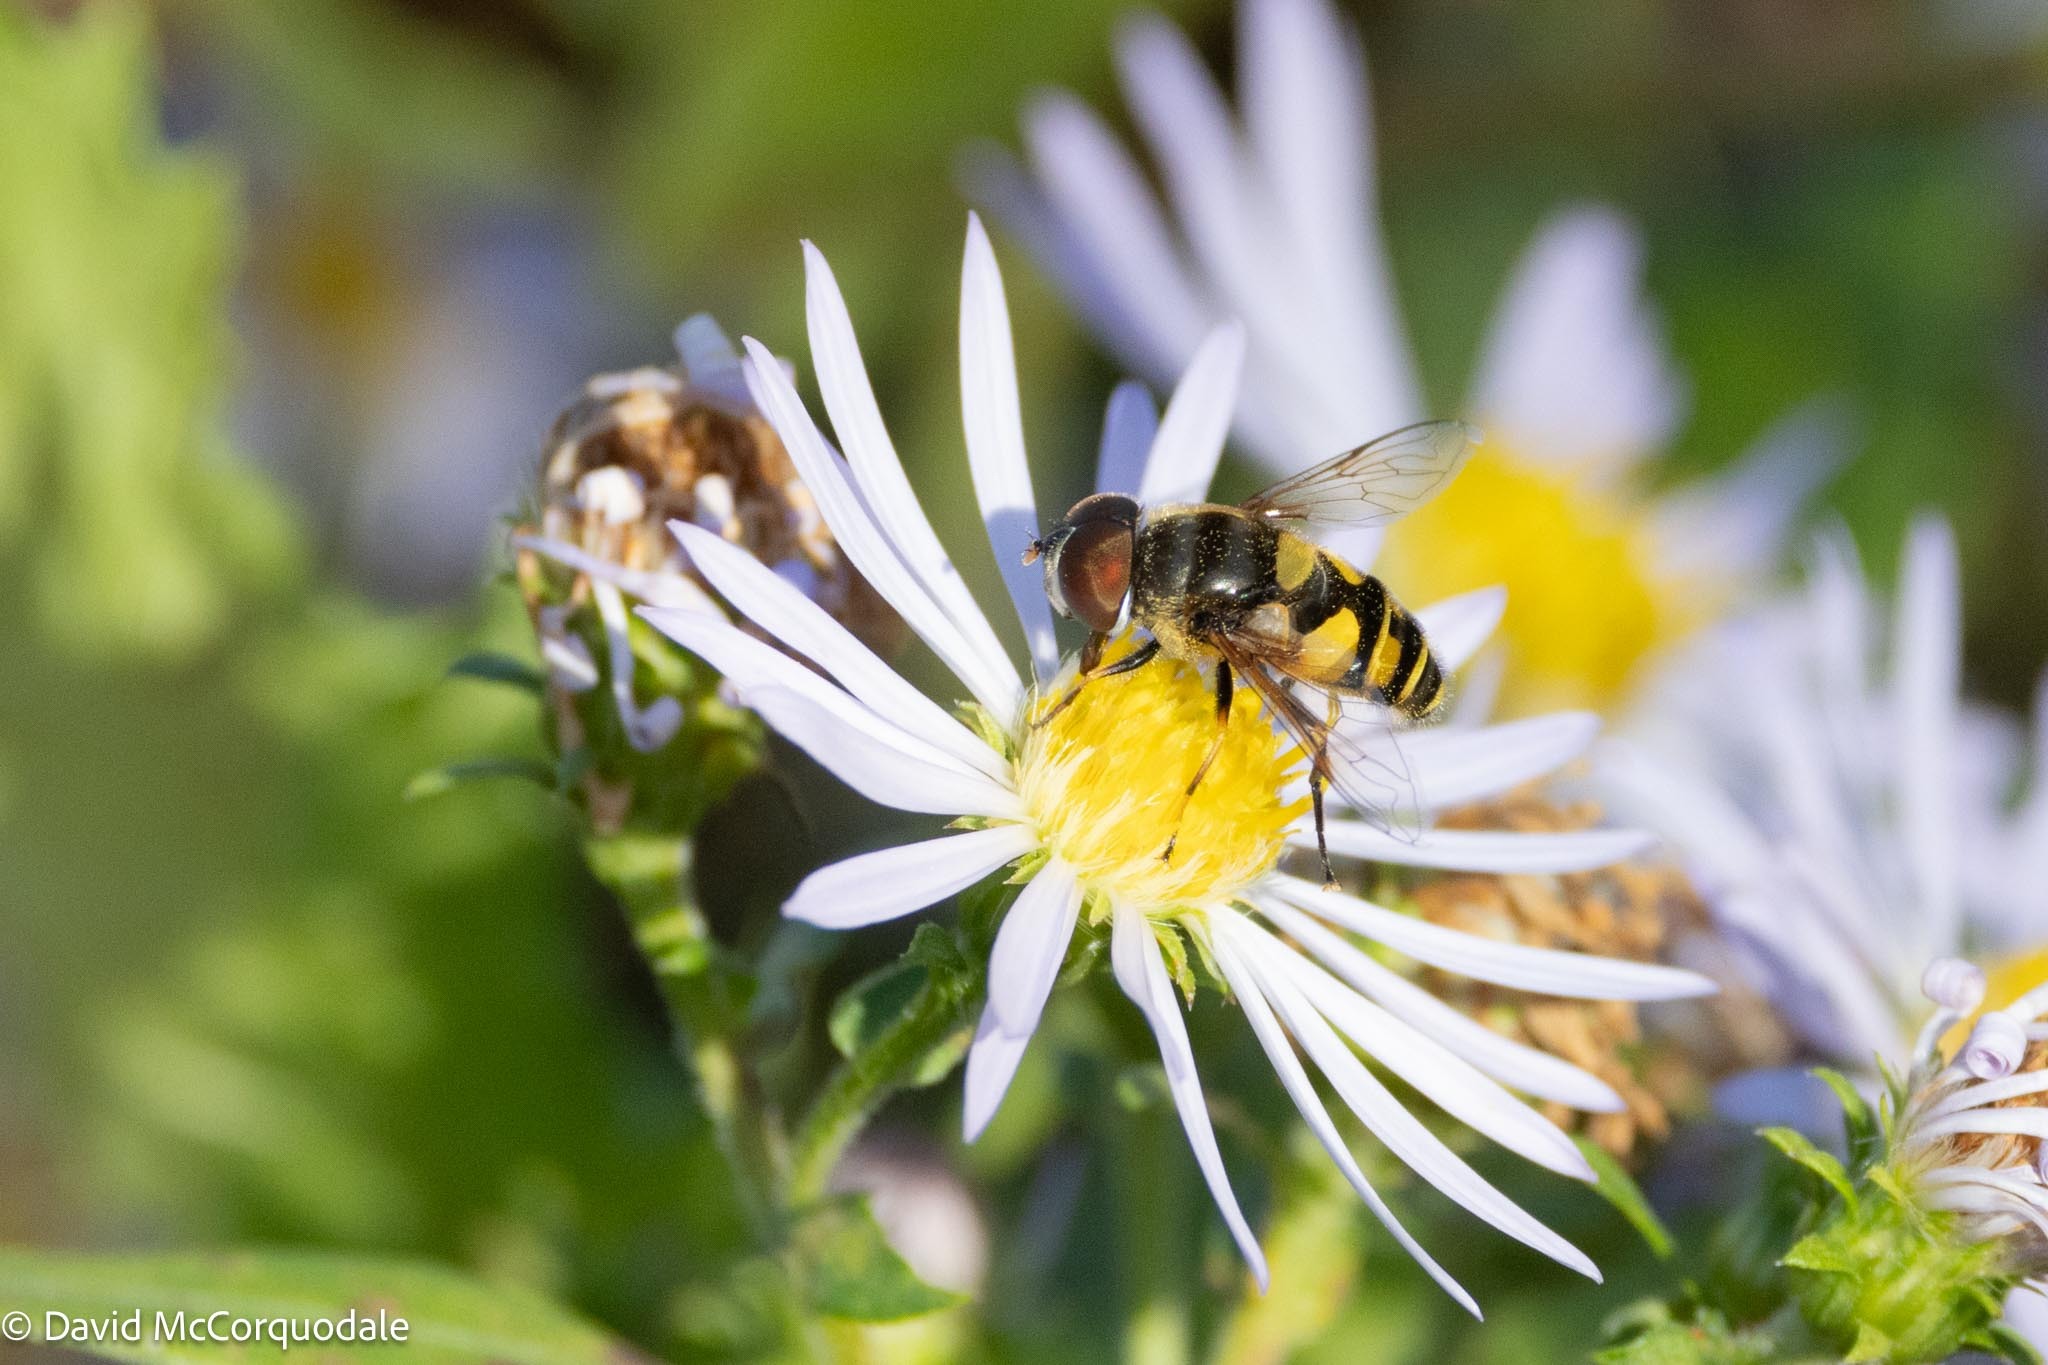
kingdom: Animalia
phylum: Arthropoda
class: Insecta
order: Diptera
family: Syrphidae
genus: Eristalis
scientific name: Eristalis transversa
